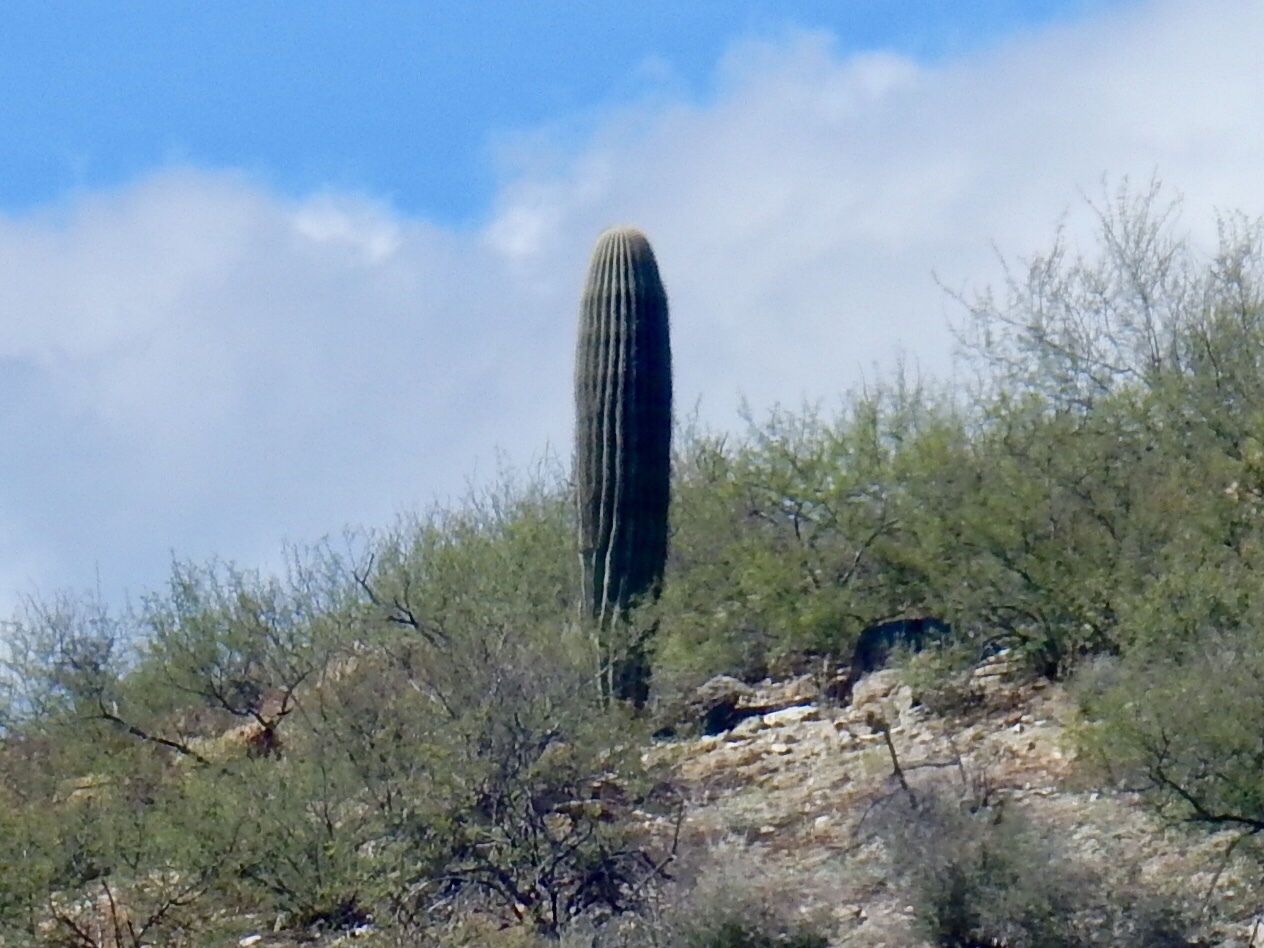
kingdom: Plantae
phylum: Tracheophyta
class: Magnoliopsida
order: Caryophyllales
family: Cactaceae
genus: Carnegiea
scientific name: Carnegiea gigantea
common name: Saguaro
